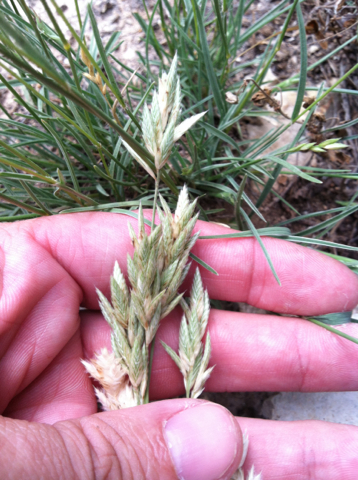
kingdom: Plantae
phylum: Tracheophyta
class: Liliopsida
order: Poales
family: Poaceae
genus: Erioneuron
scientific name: Erioneuron pilosum
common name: Hairy woolly grass
